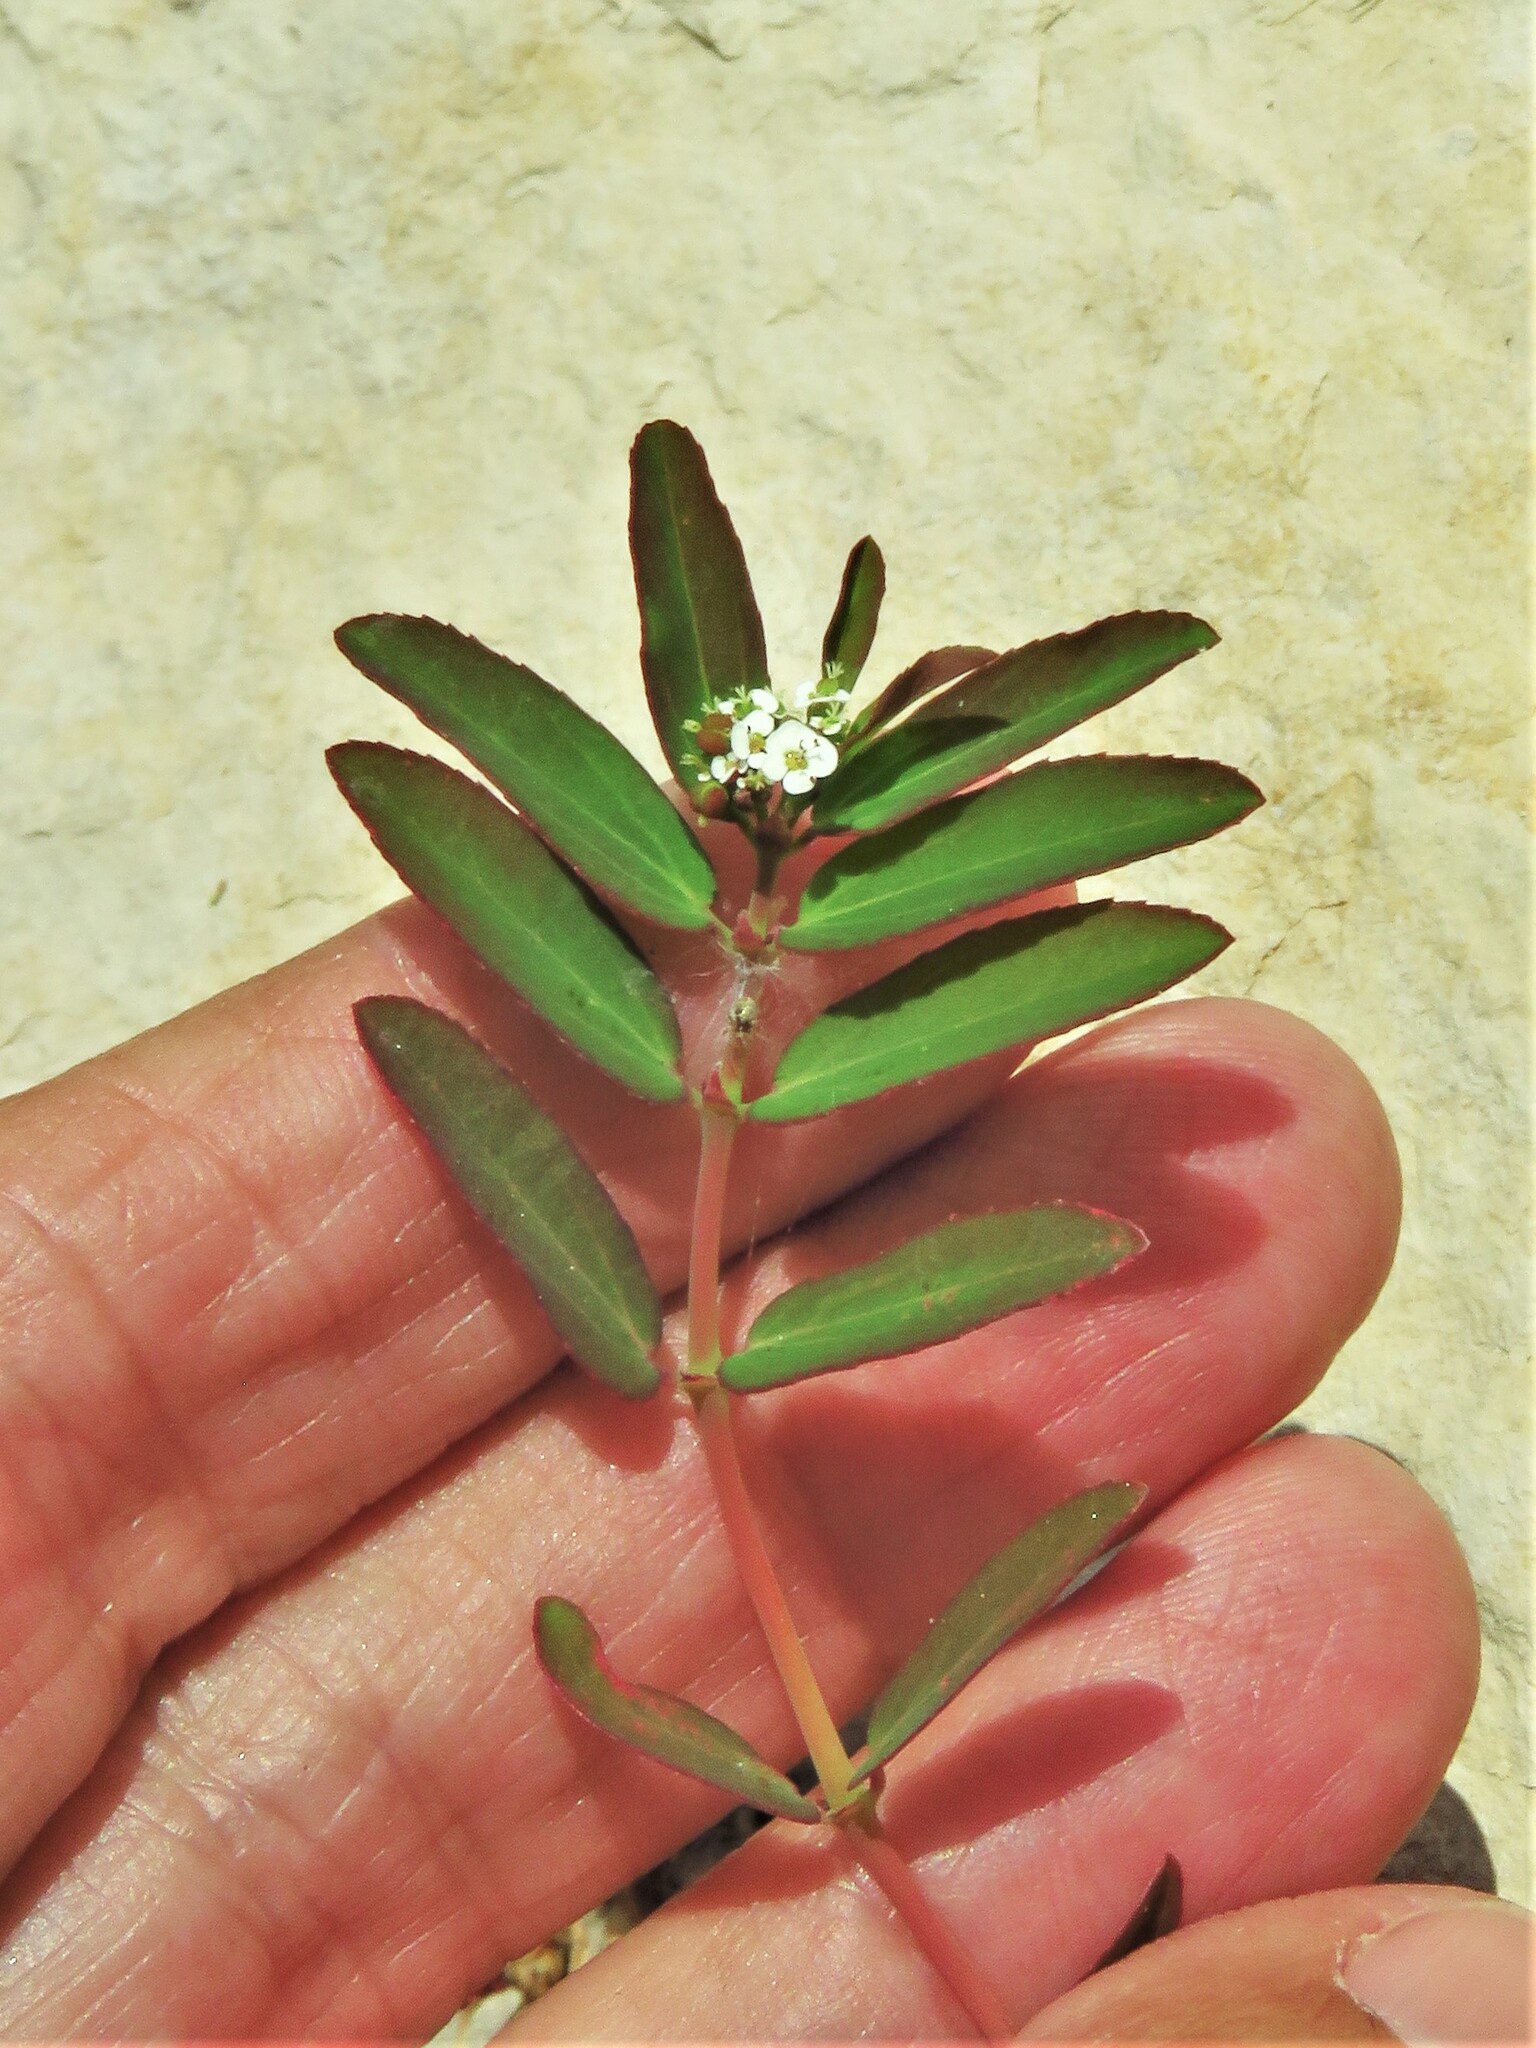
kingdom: Plantae
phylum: Tracheophyta
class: Magnoliopsida
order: Malpighiales
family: Euphorbiaceae
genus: Euphorbia
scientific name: Euphorbia hypericifolia
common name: Graceful sandmat
